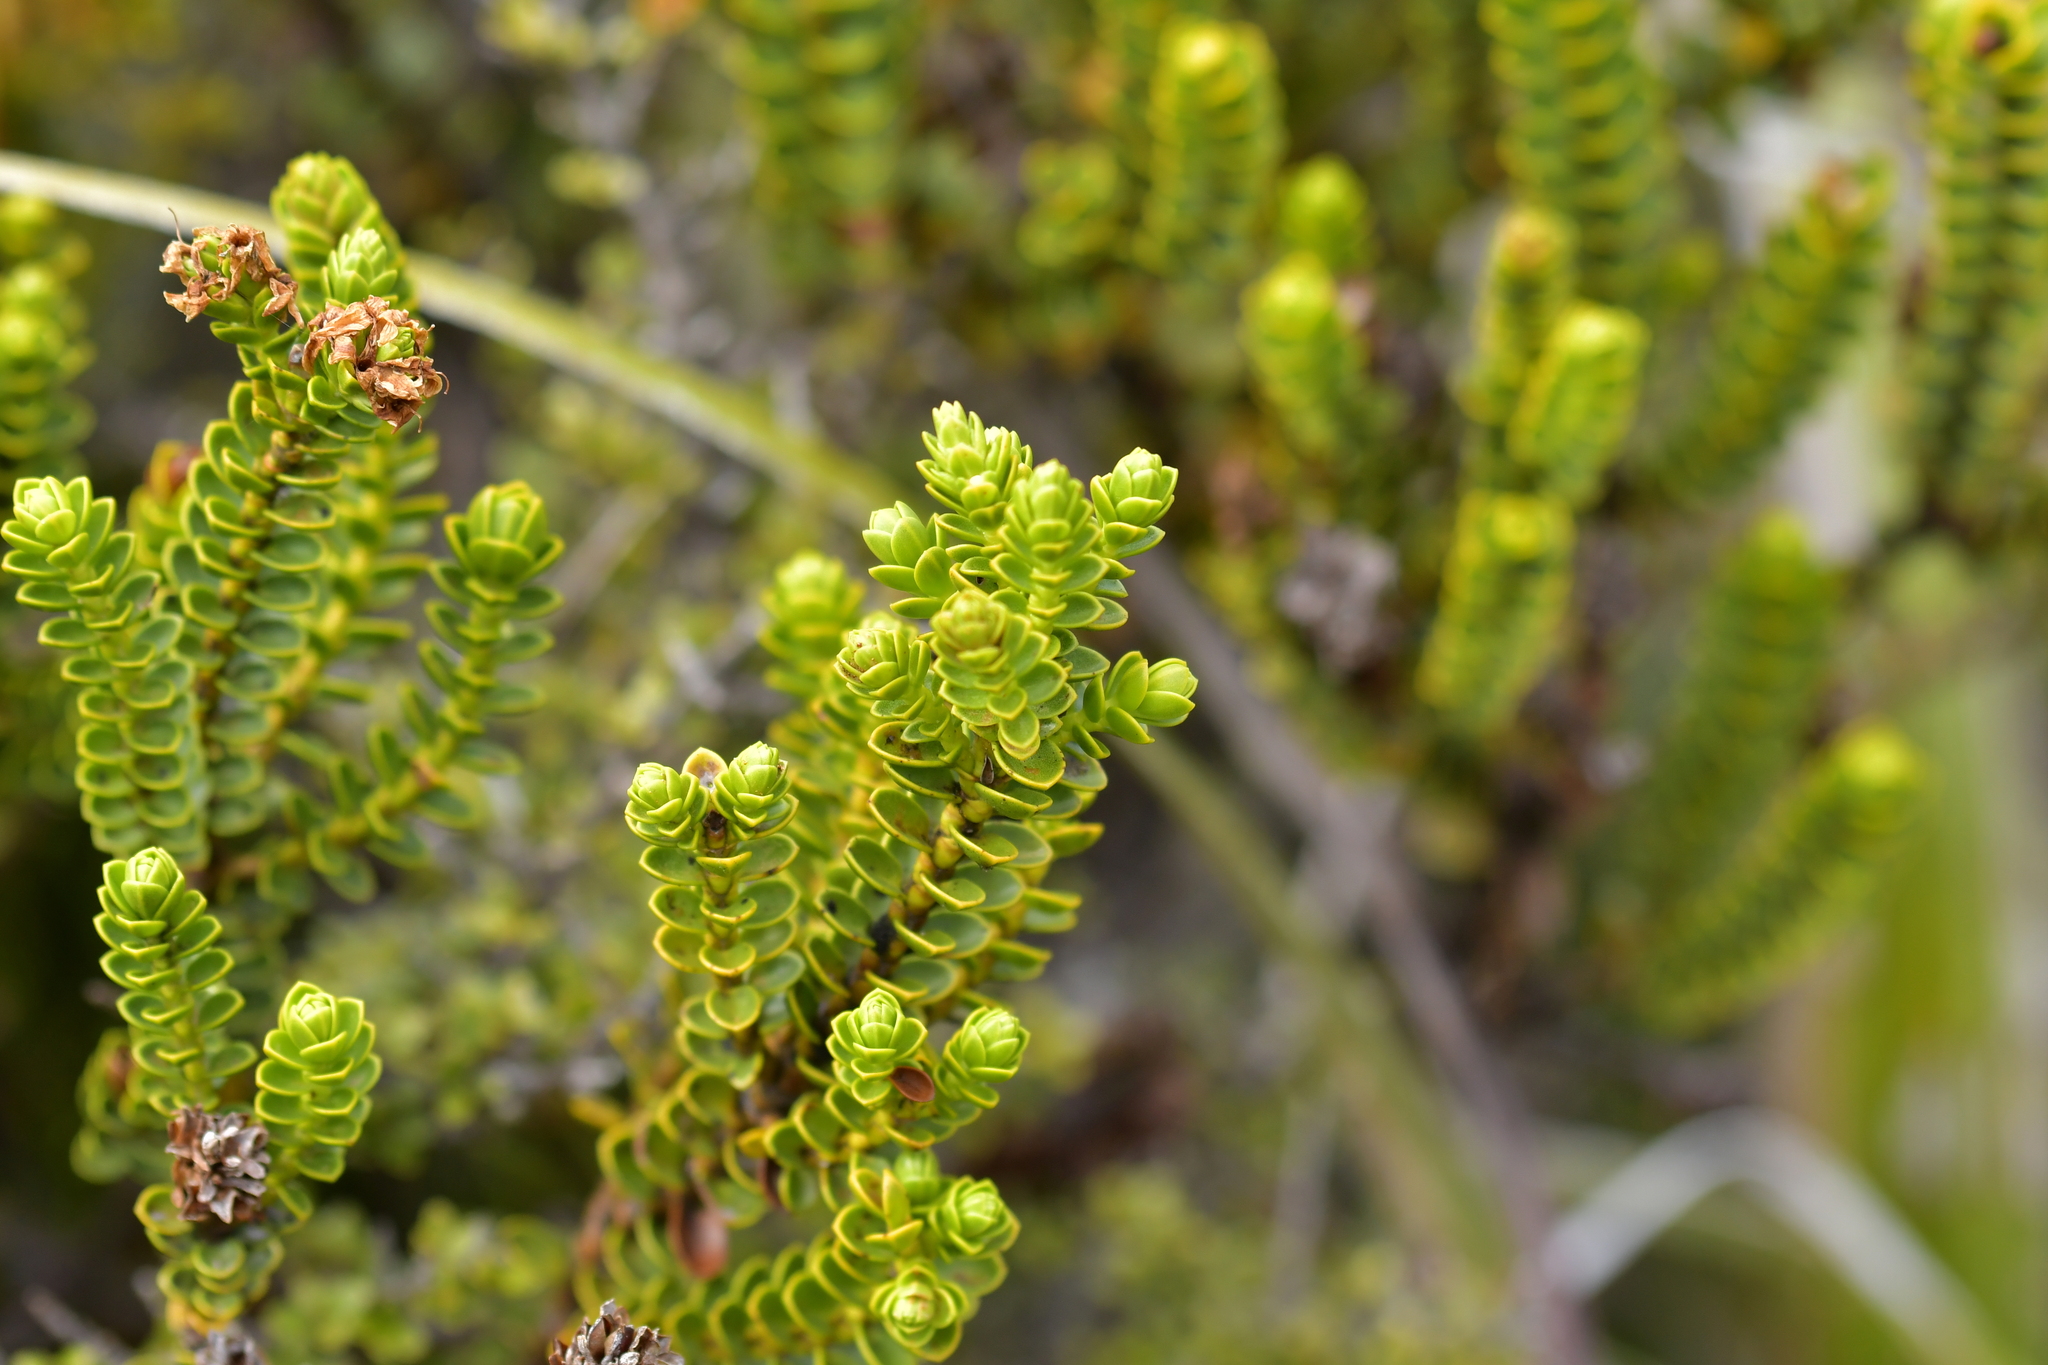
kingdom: Plantae
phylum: Tracheophyta
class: Magnoliopsida
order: Lamiales
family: Plantaginaceae
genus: Veronica
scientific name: Veronica masoniae
